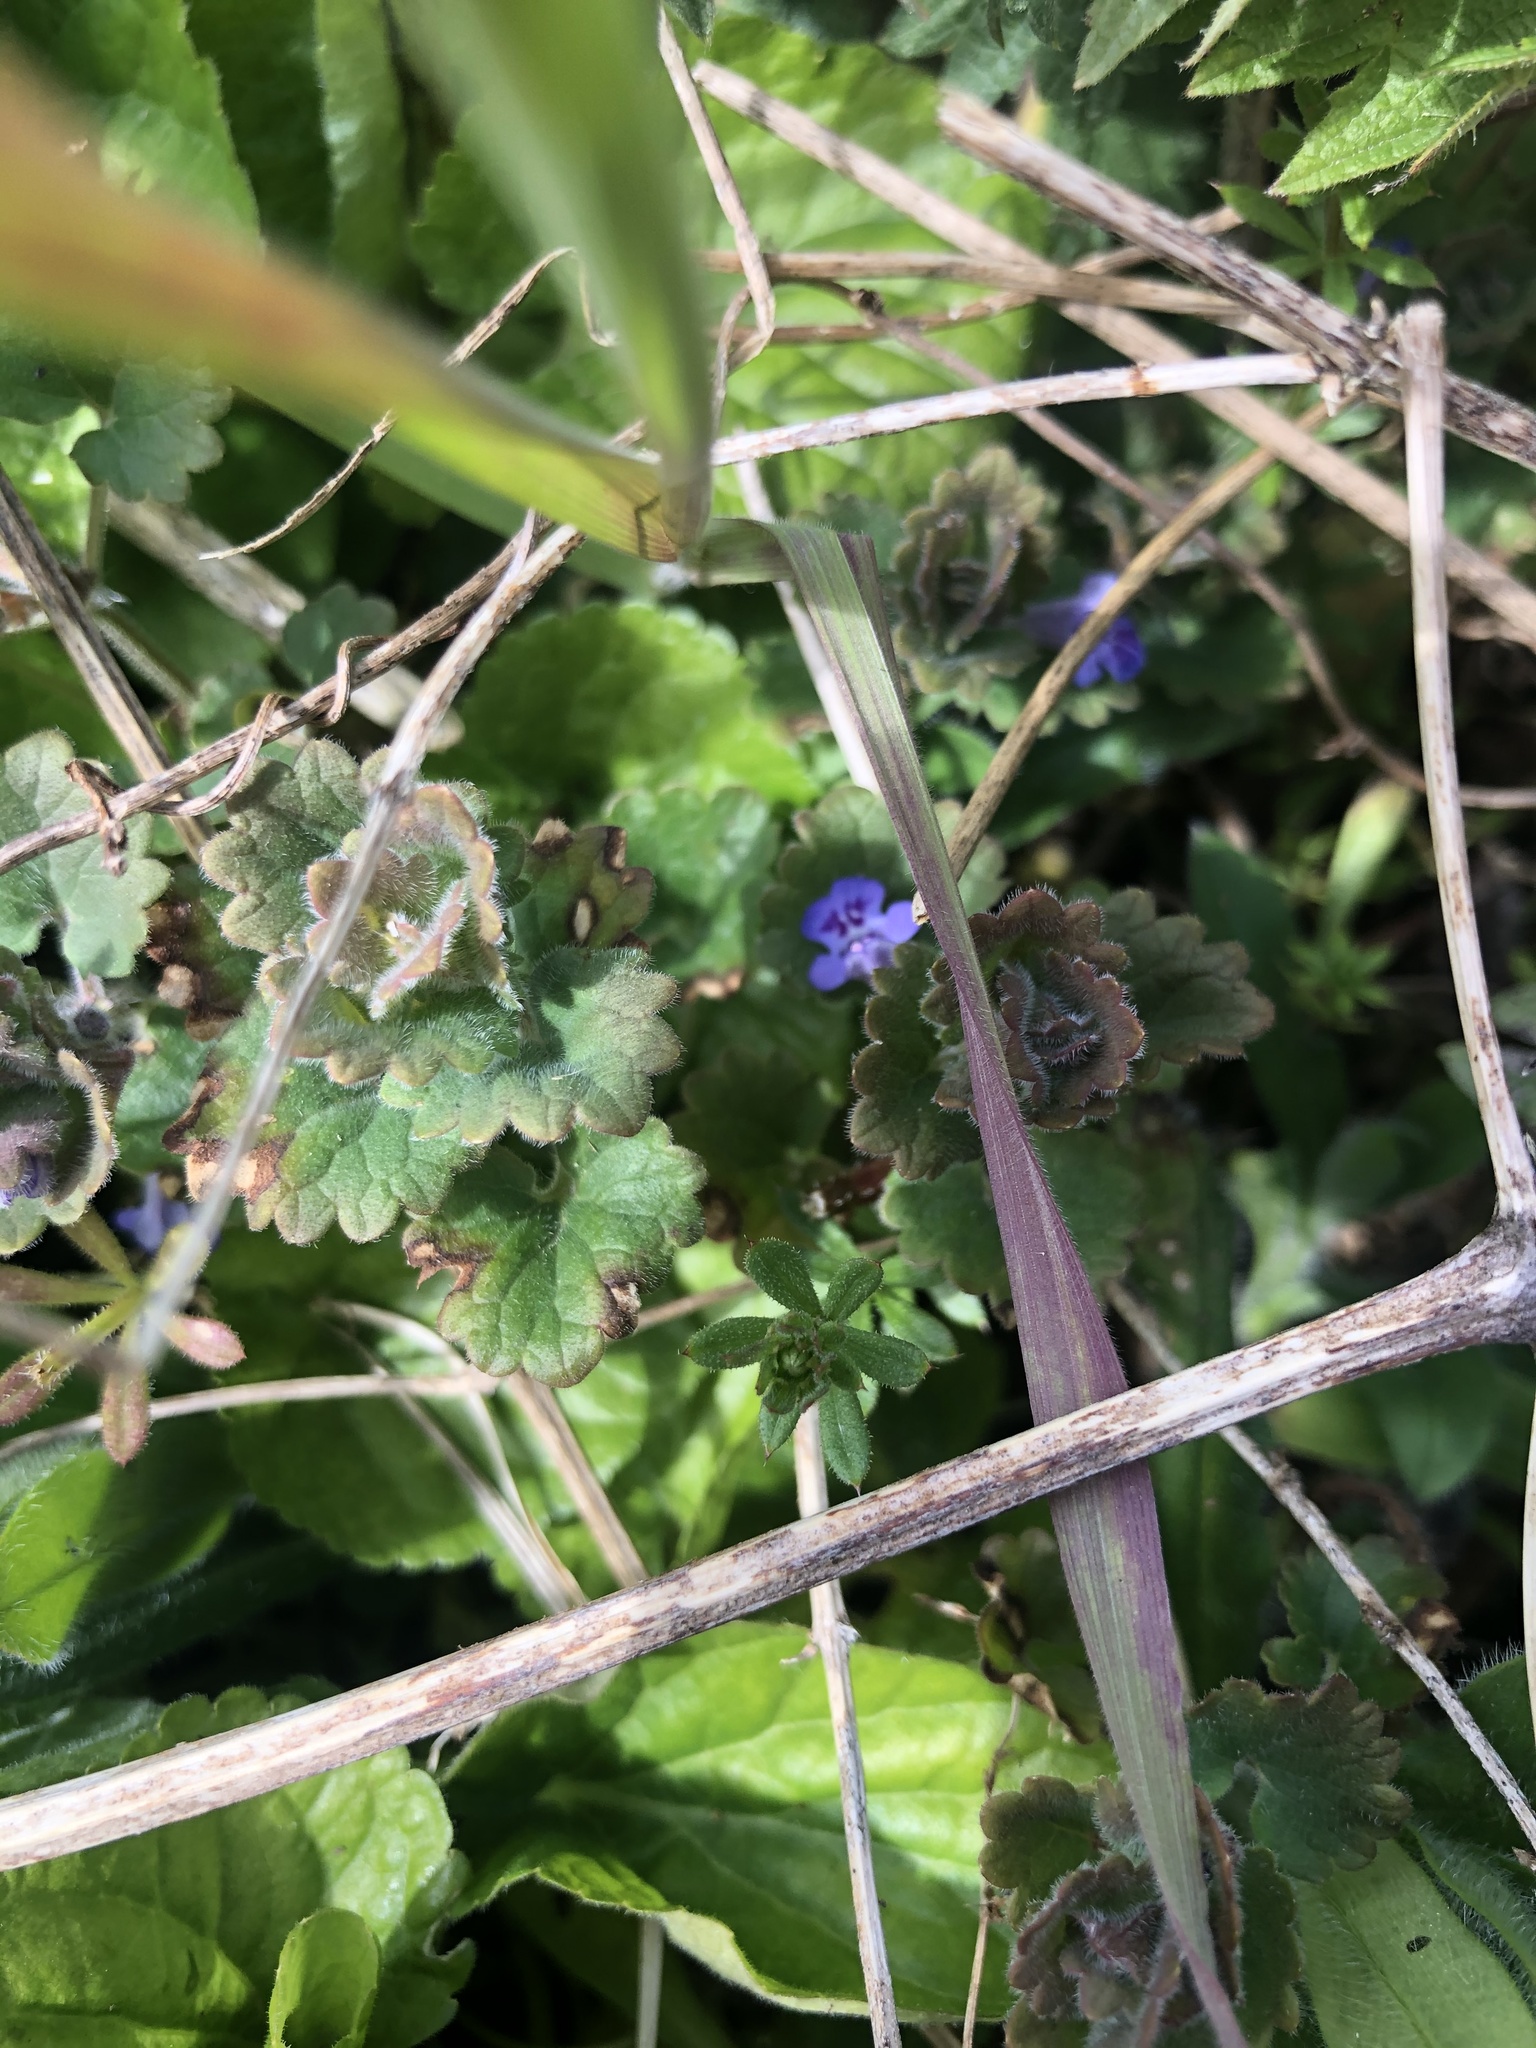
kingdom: Plantae
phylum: Tracheophyta
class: Magnoliopsida
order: Lamiales
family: Lamiaceae
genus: Glechoma
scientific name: Glechoma hederacea
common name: Ground ivy
